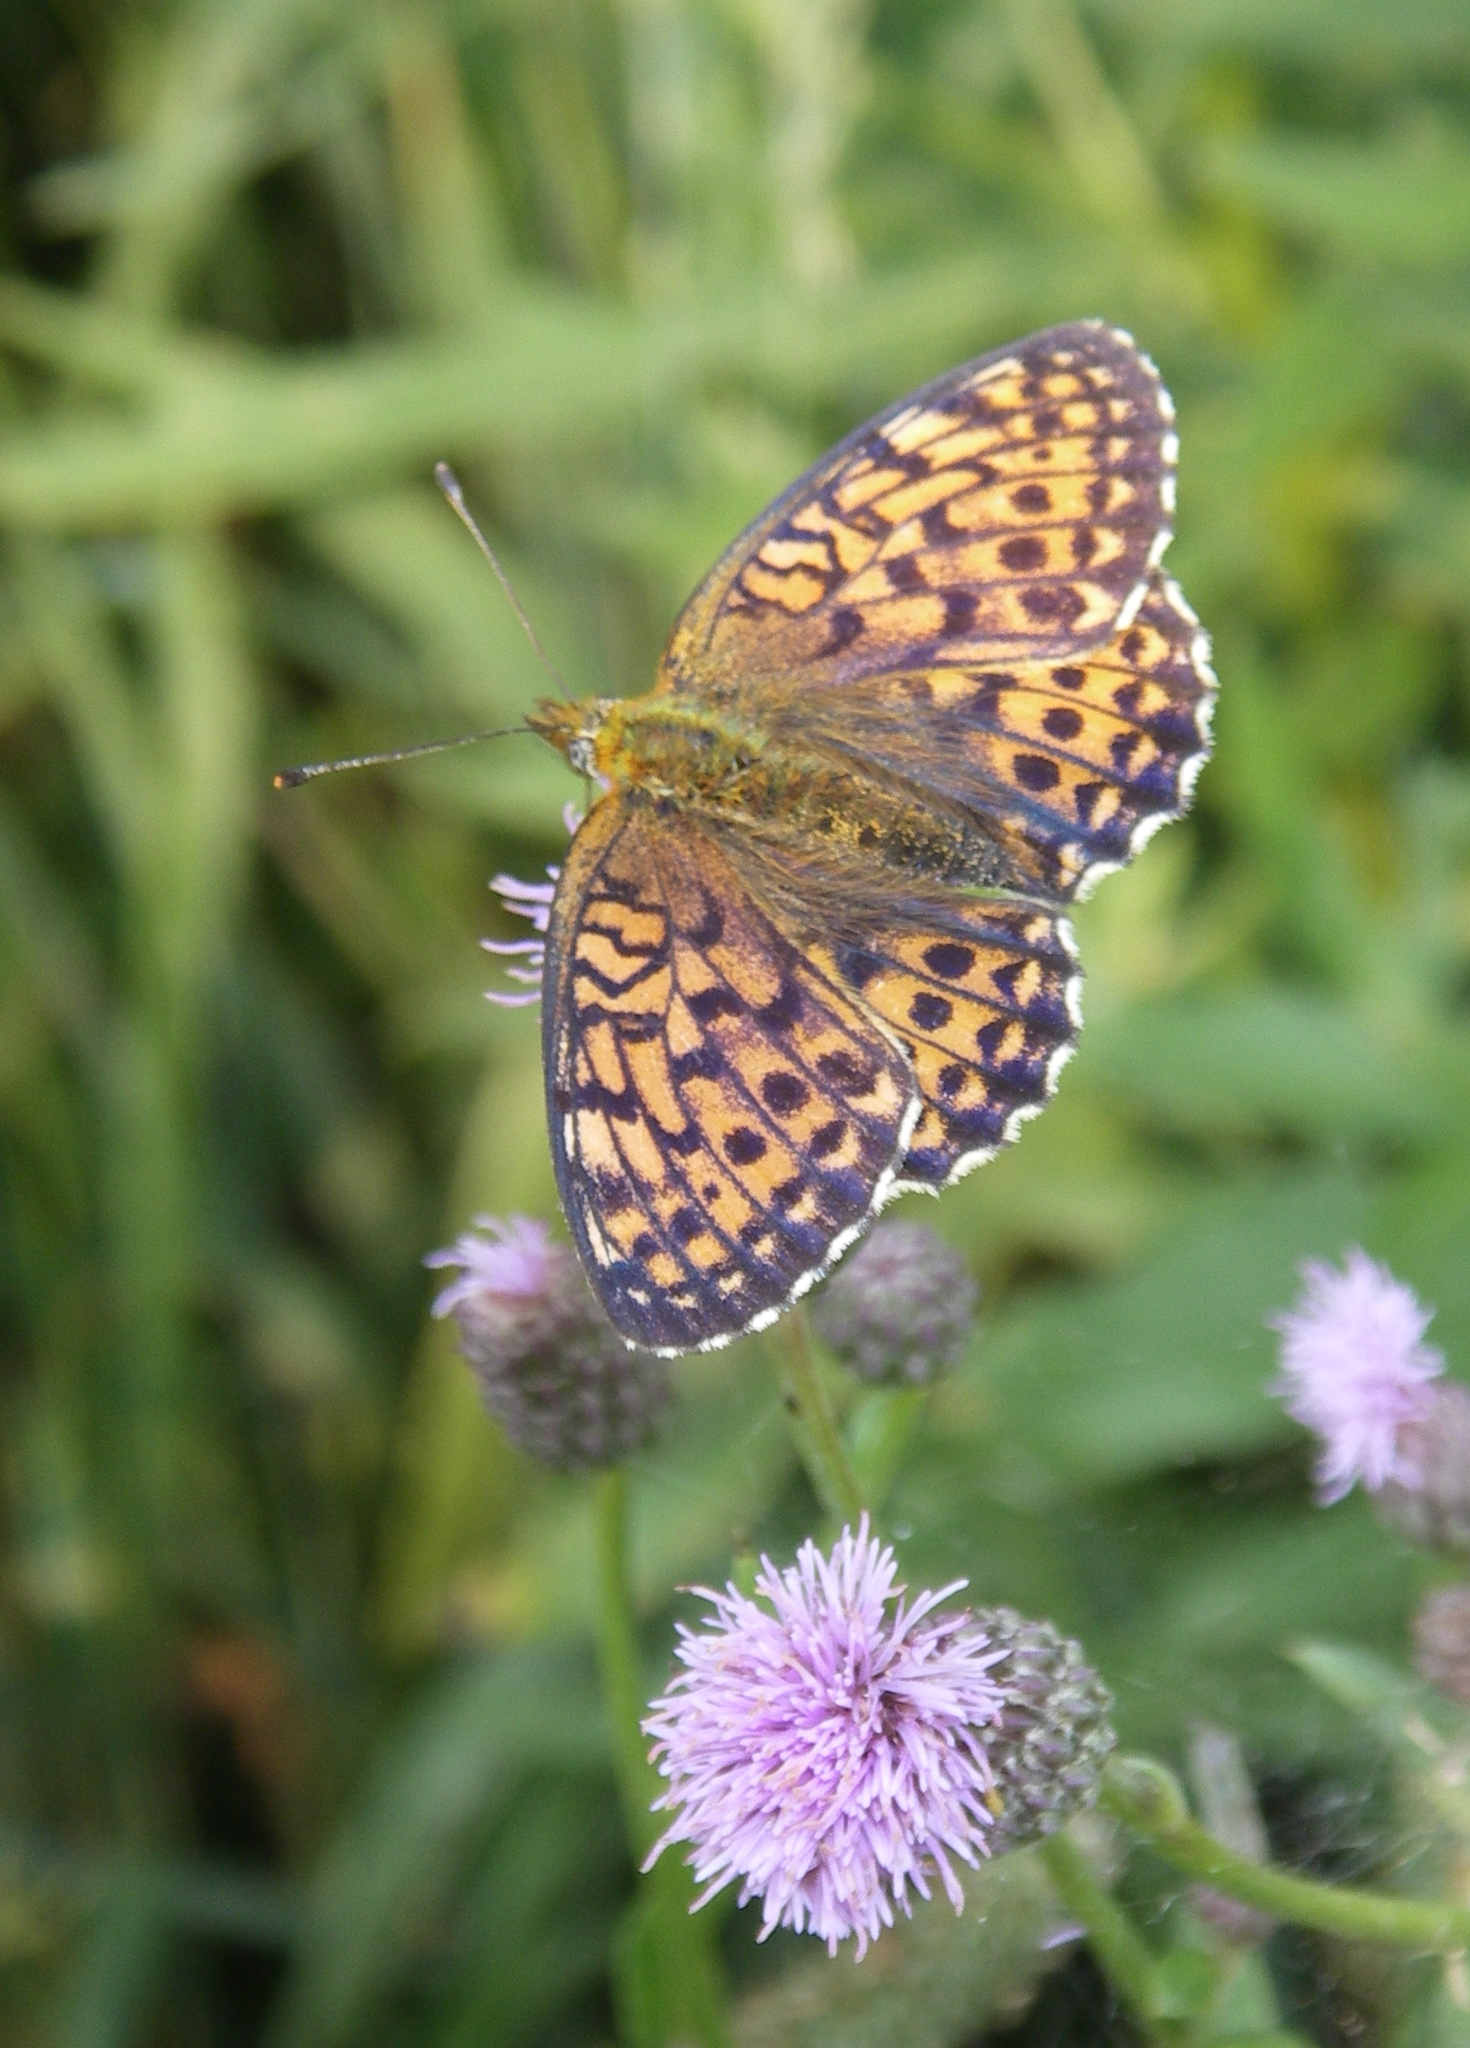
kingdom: Plantae
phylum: Tracheophyta
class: Magnoliopsida
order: Asterales
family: Asteraceae
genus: Cirsium
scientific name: Cirsium arvense
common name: Creeping thistle
